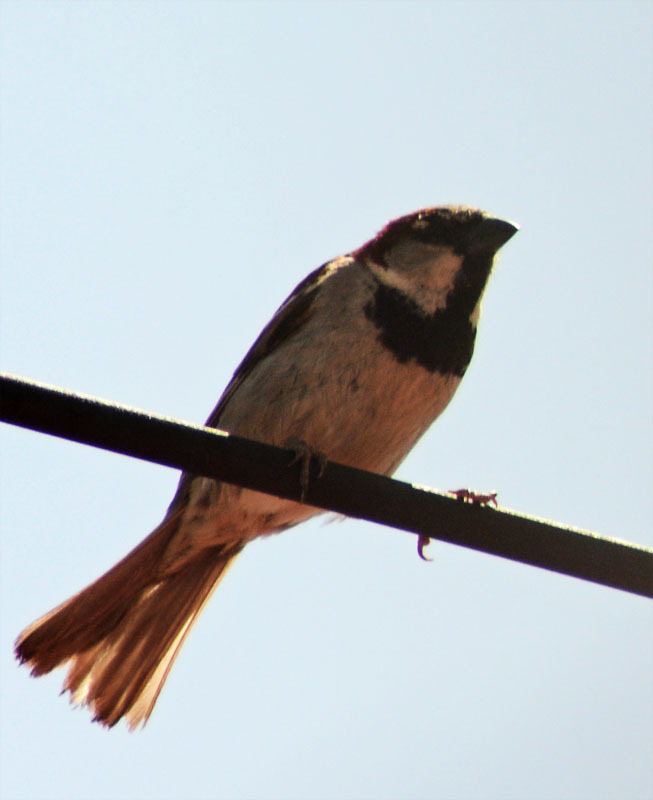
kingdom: Animalia
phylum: Chordata
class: Aves
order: Passeriformes
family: Passeridae
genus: Passer
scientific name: Passer domesticus
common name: House sparrow
